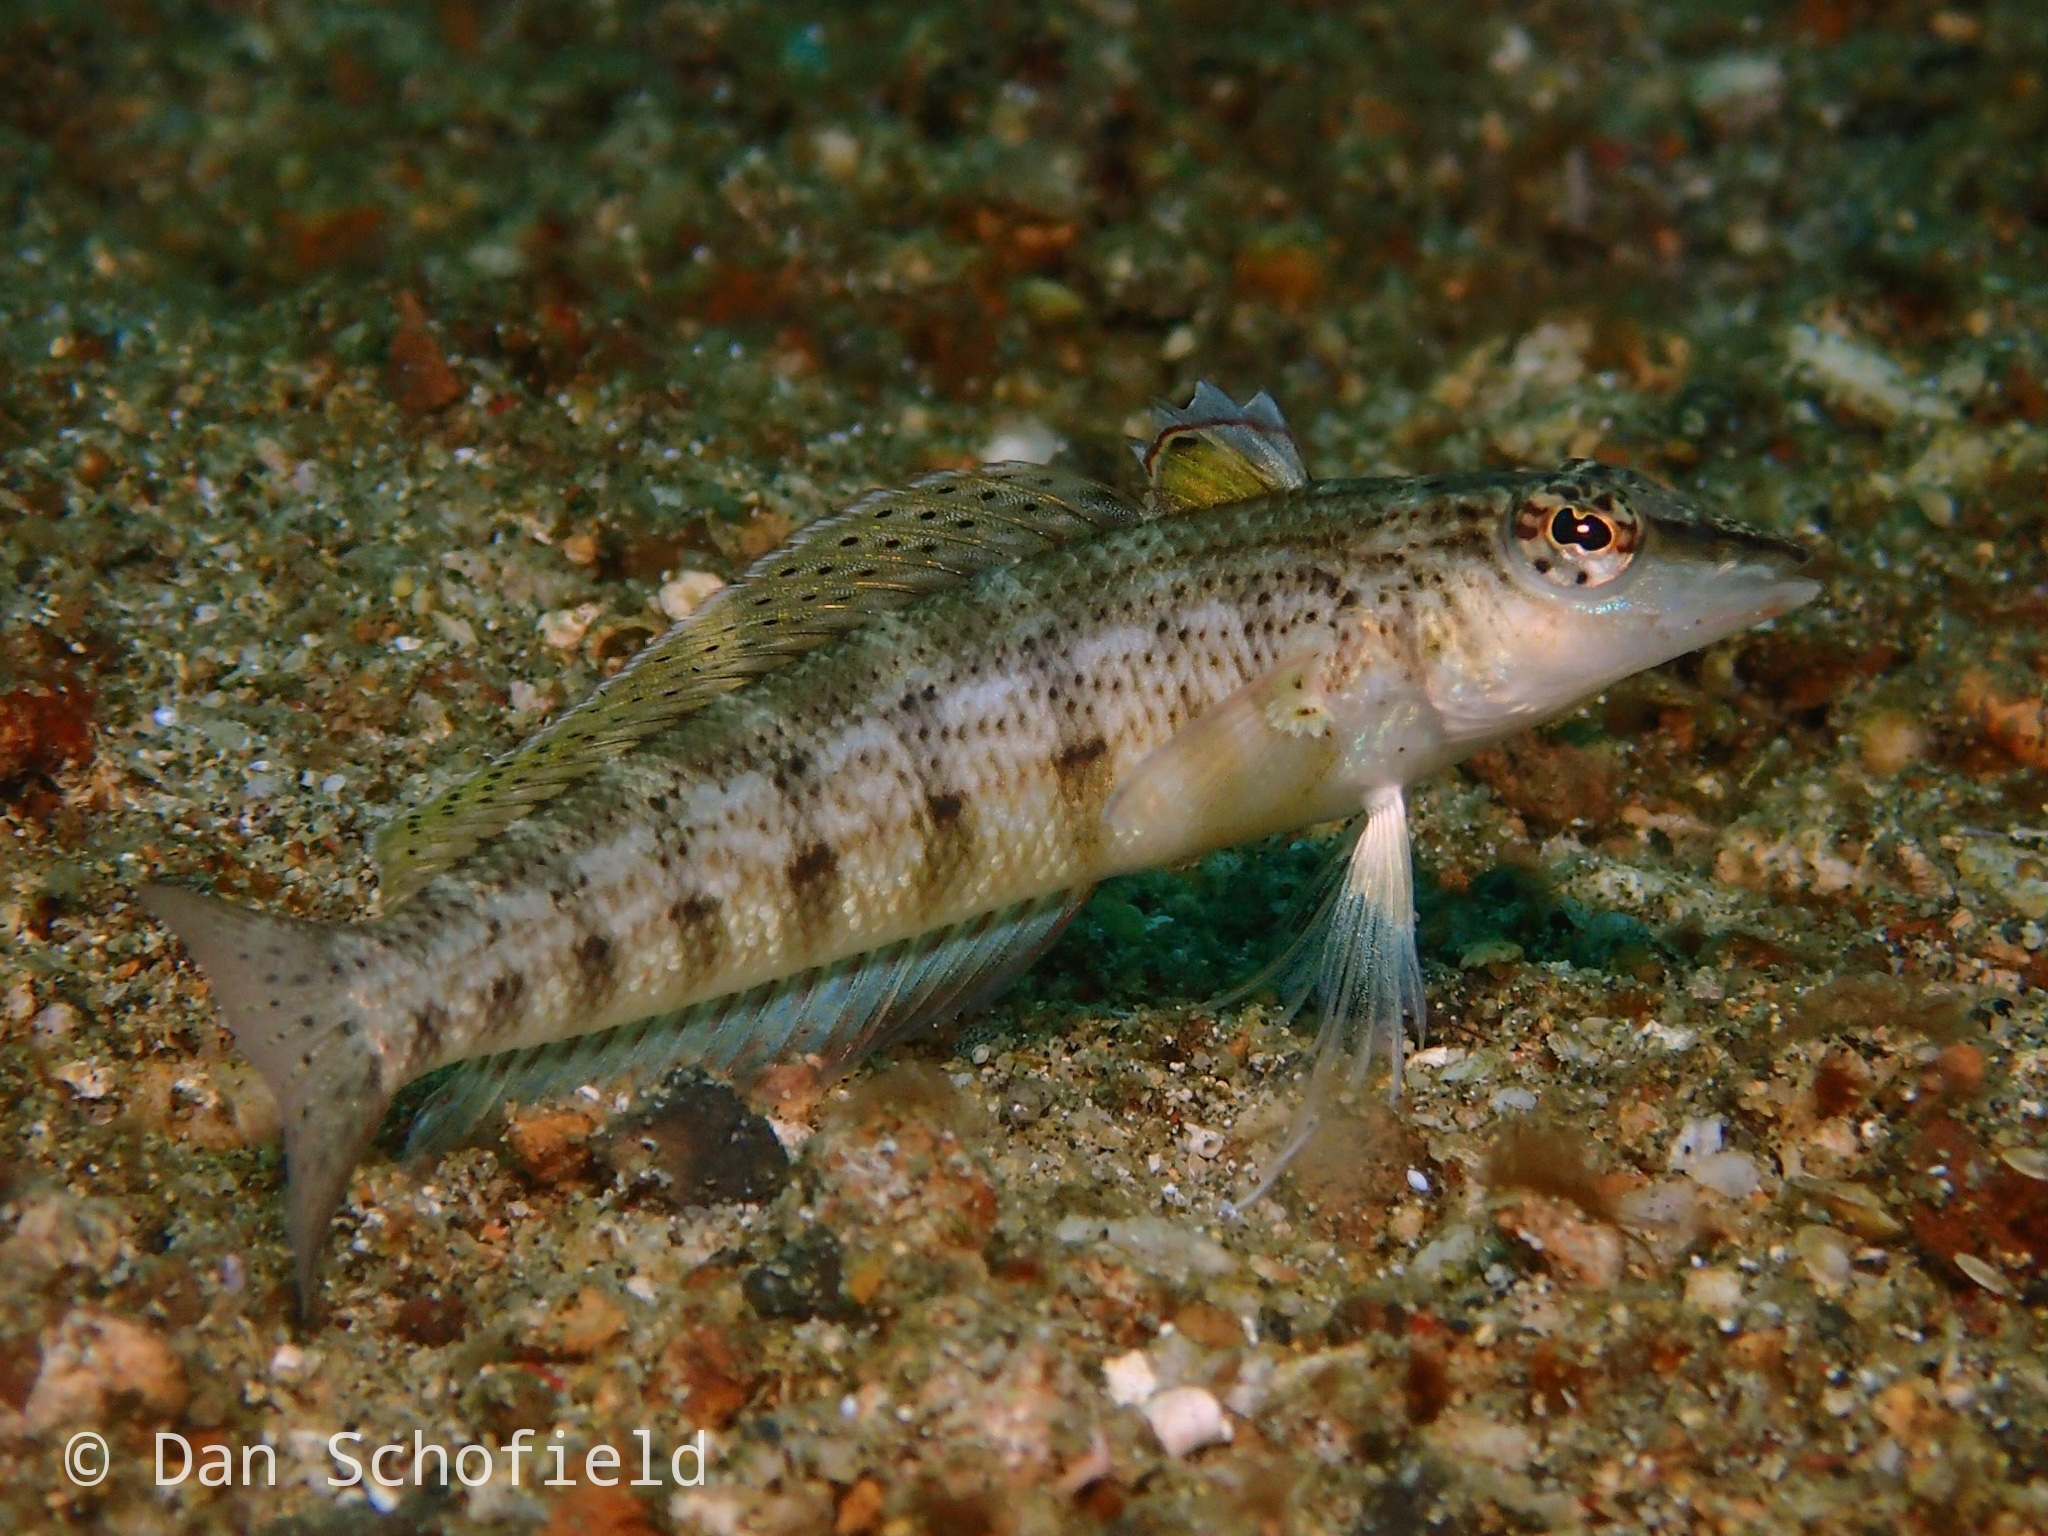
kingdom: Animalia
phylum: Chordata
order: Perciformes
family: Pinguipedidae
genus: Parapercis
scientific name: Parapercis lineopunctata
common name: Nosestripe sandperch
